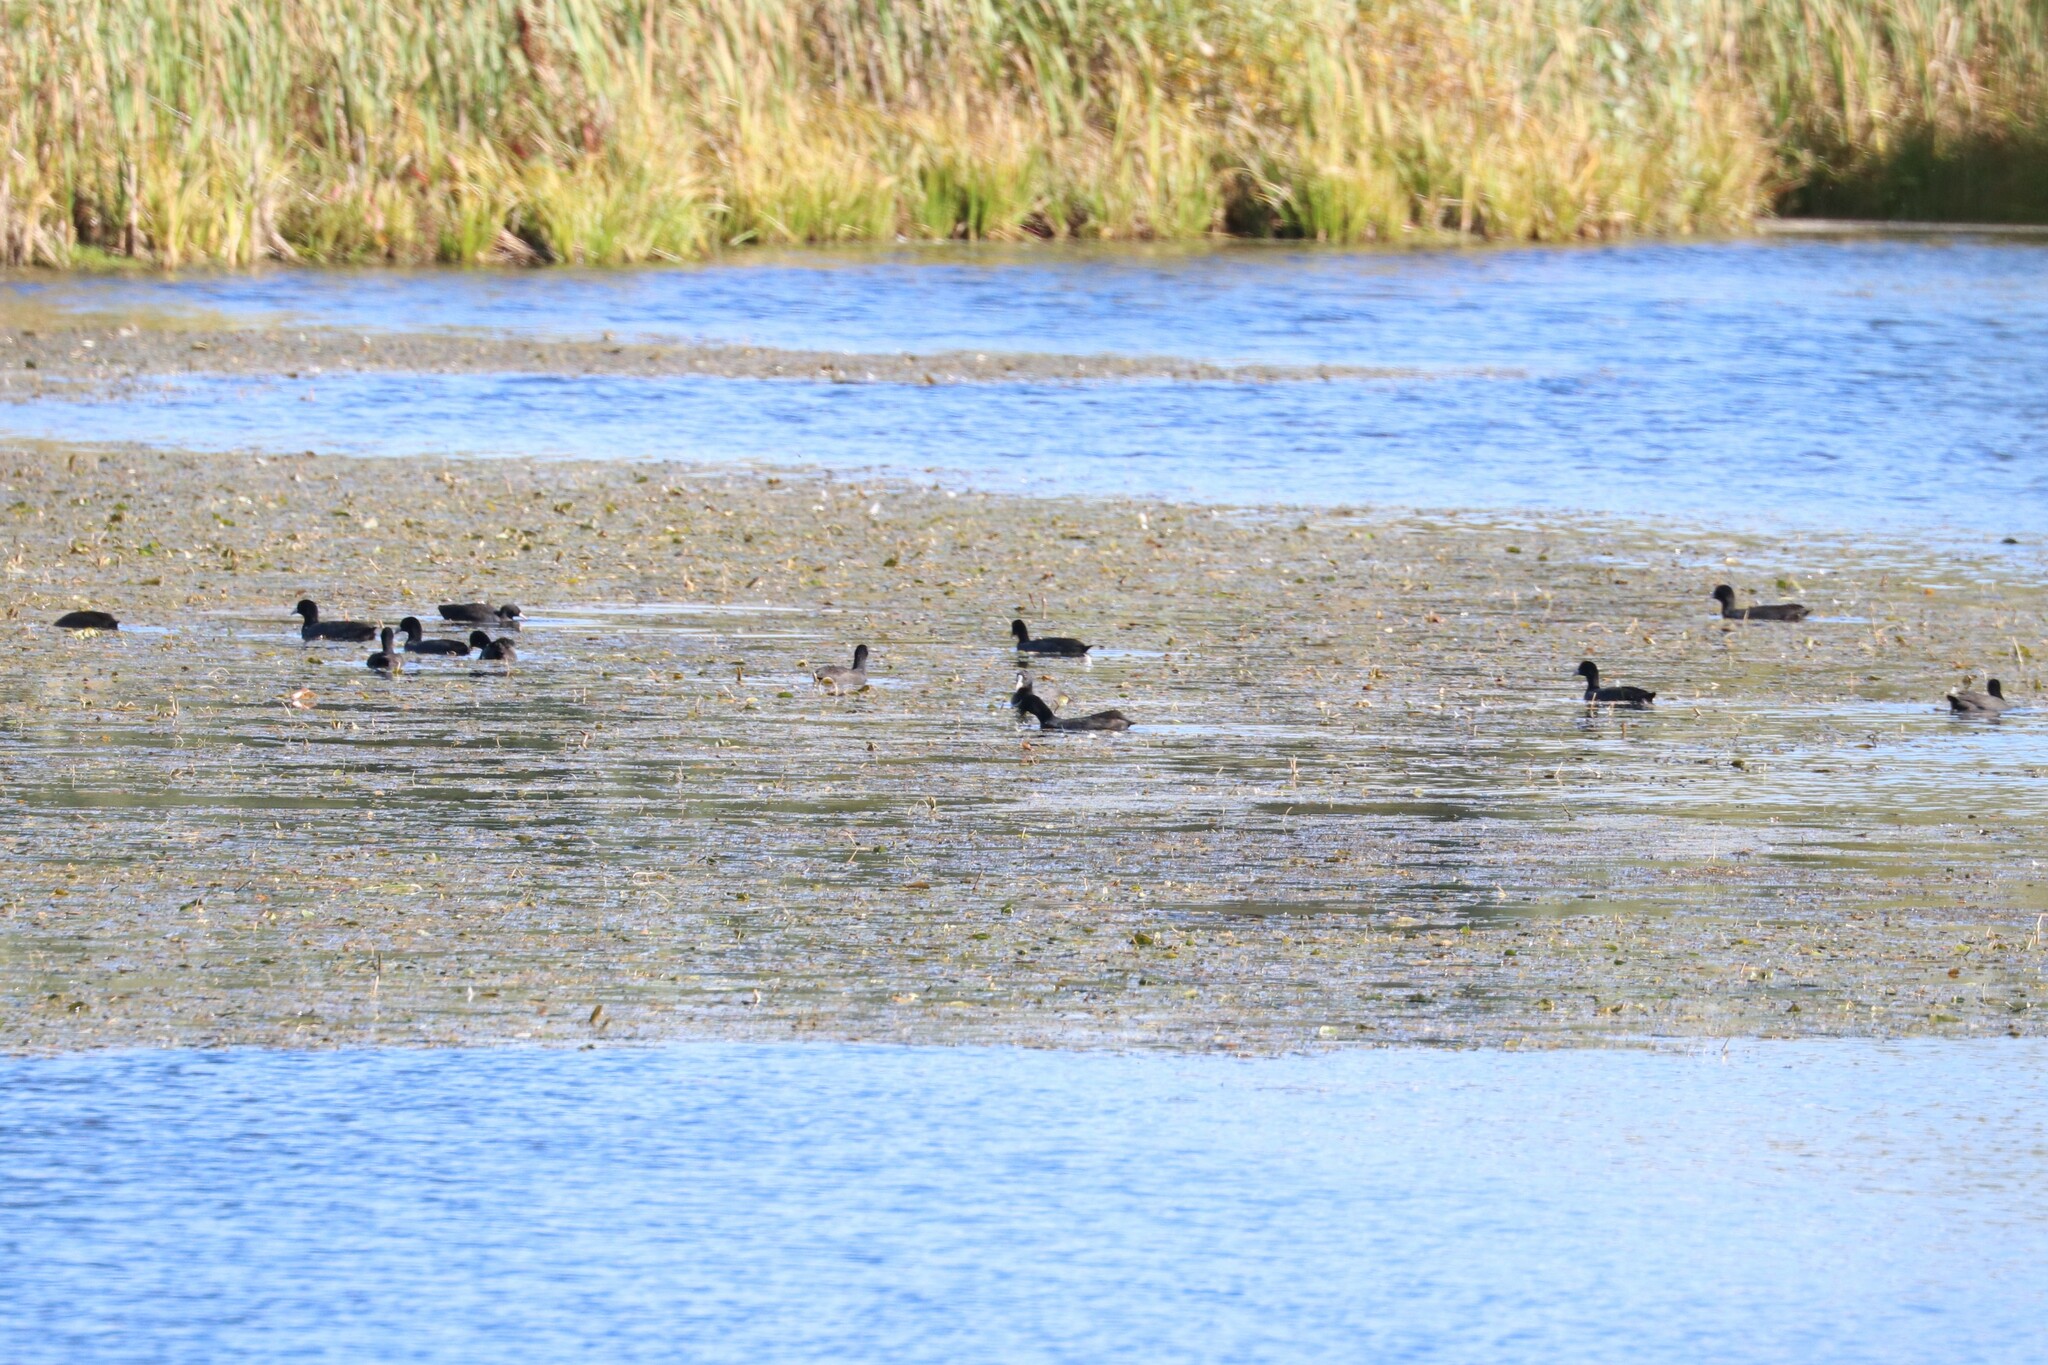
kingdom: Animalia
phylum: Chordata
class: Aves
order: Gruiformes
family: Rallidae
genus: Fulica
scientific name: Fulica atra
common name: Eurasian coot
